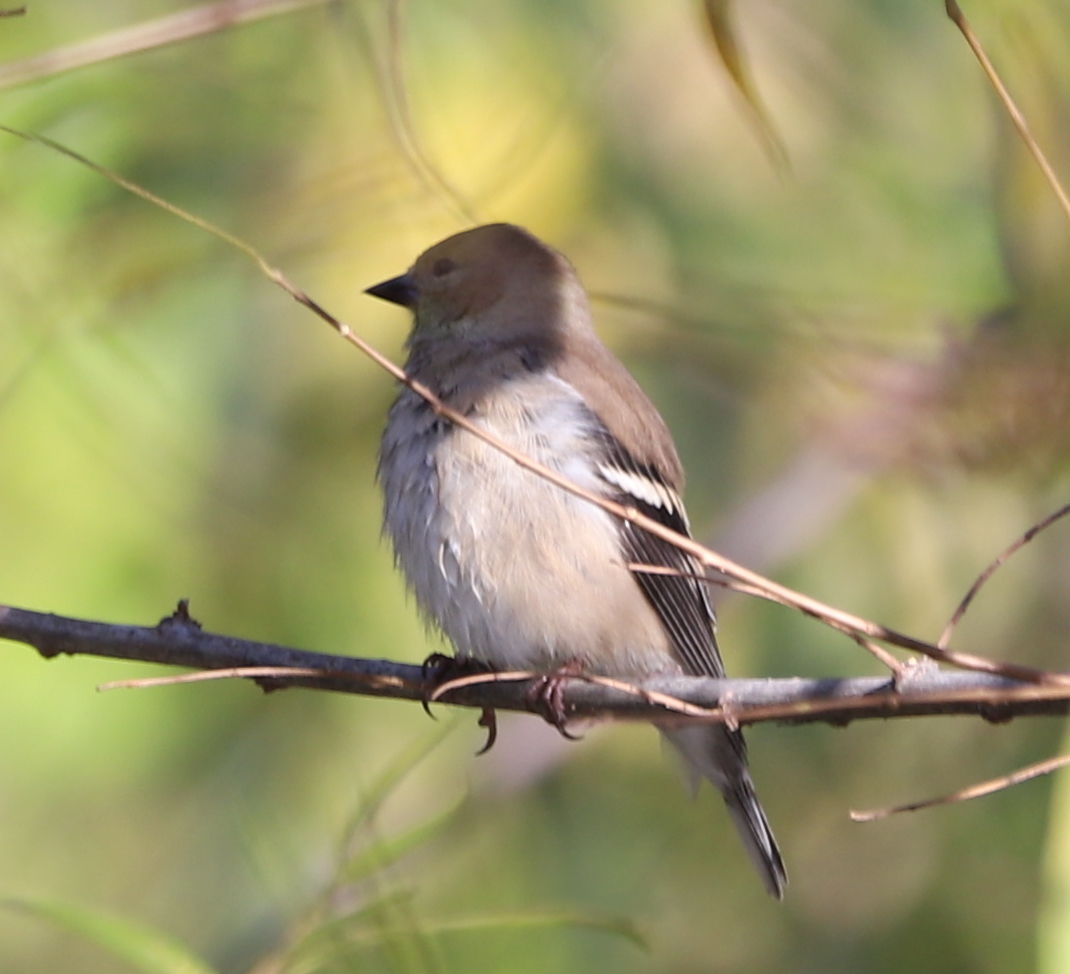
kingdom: Animalia
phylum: Chordata
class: Aves
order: Passeriformes
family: Fringillidae
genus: Spinus
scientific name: Spinus tristis
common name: American goldfinch
